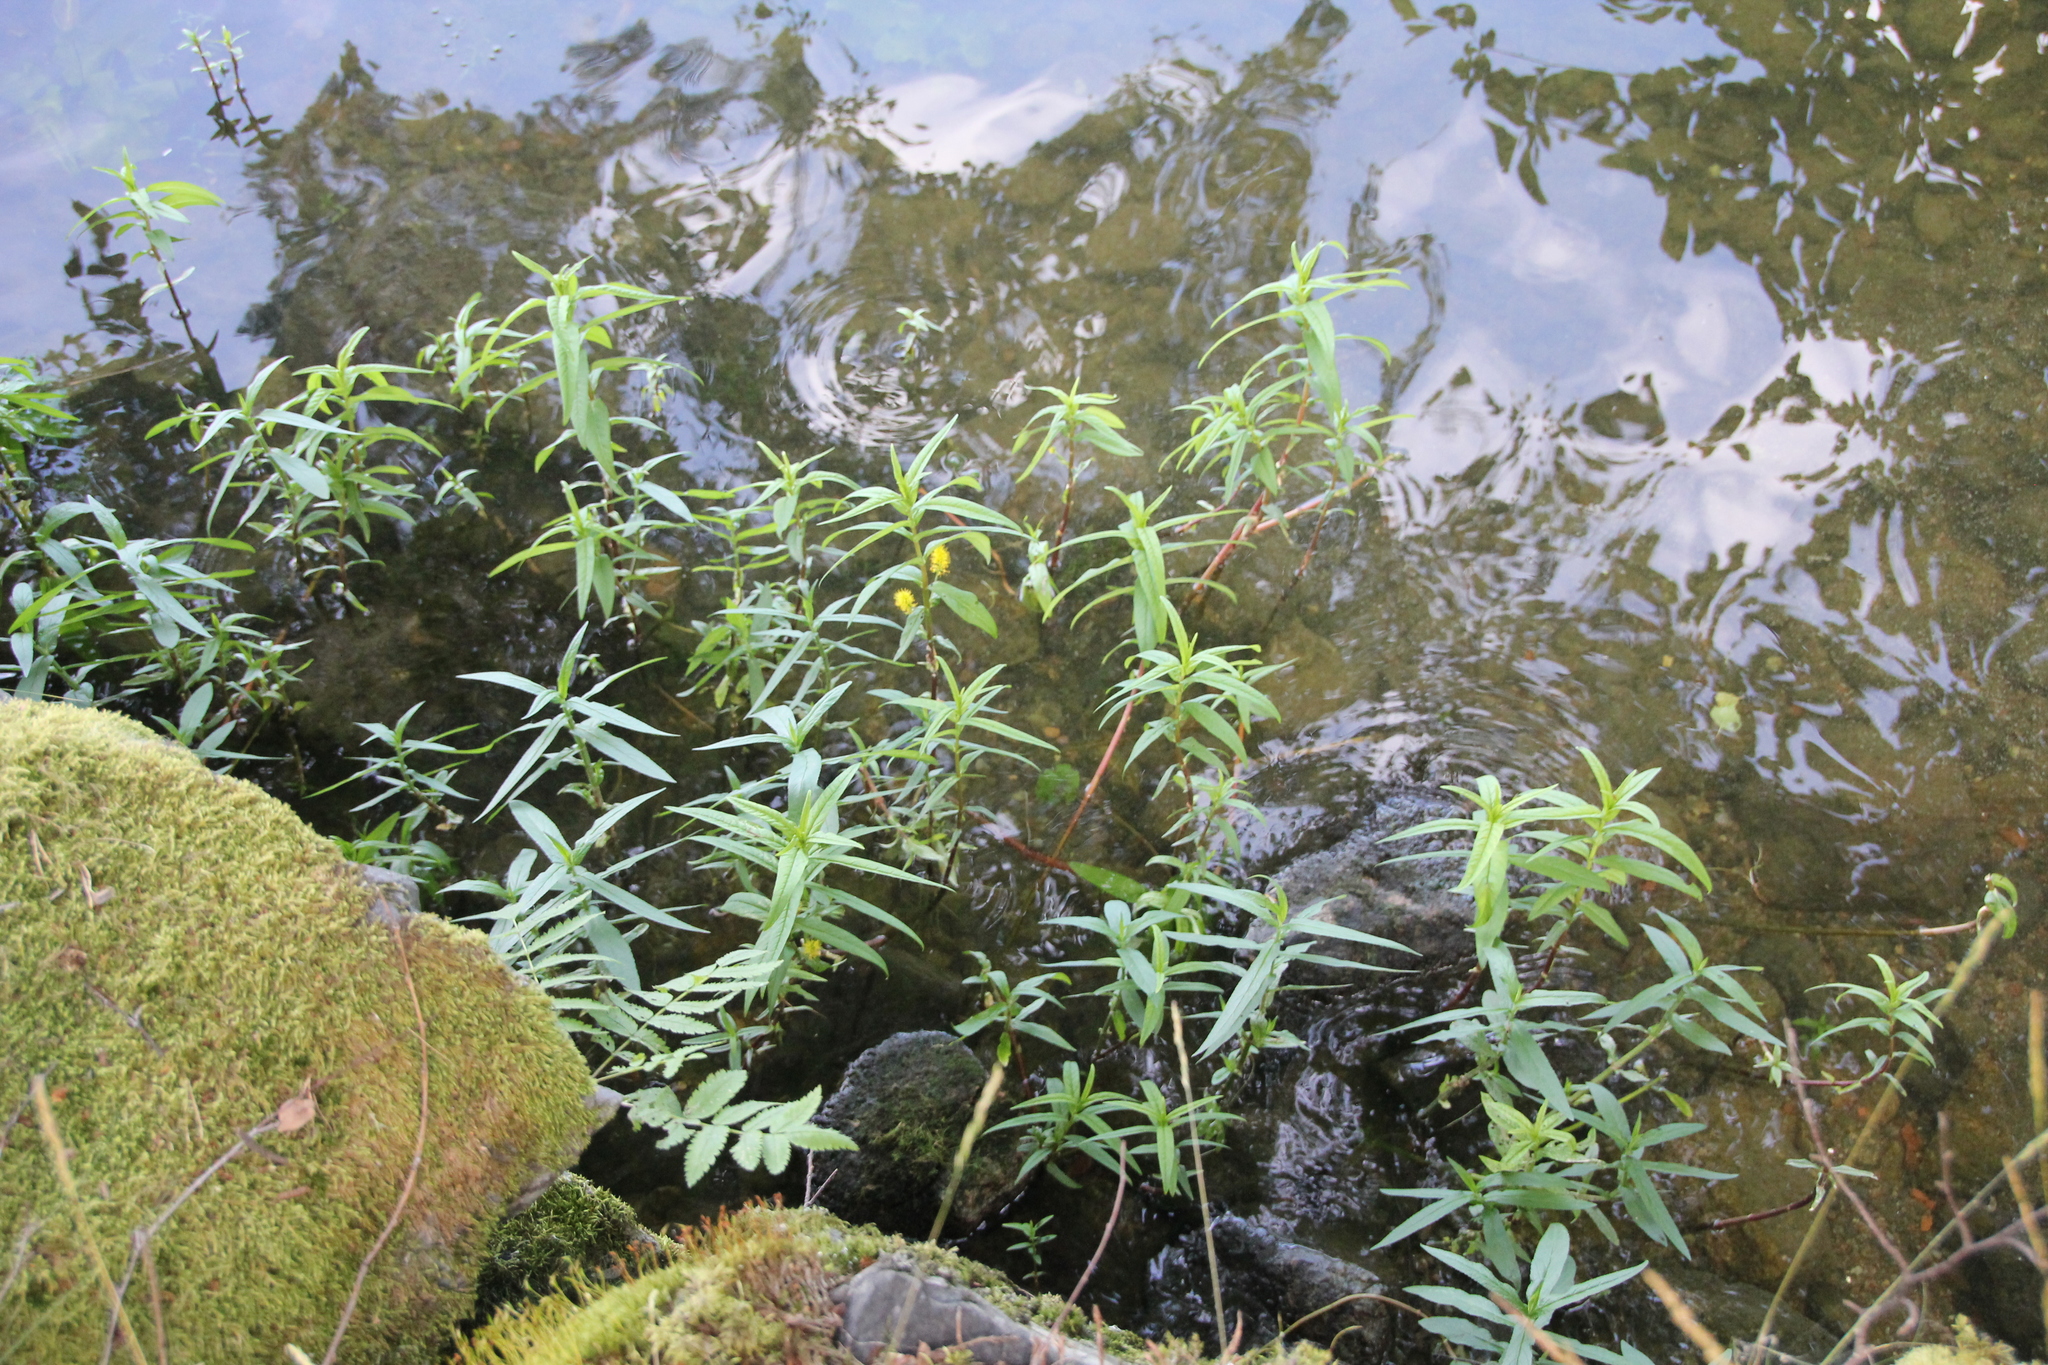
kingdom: Plantae
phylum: Tracheophyta
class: Magnoliopsida
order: Ericales
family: Primulaceae
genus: Lysimachia
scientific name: Lysimachia thyrsiflora
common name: Tufted loosestrife
